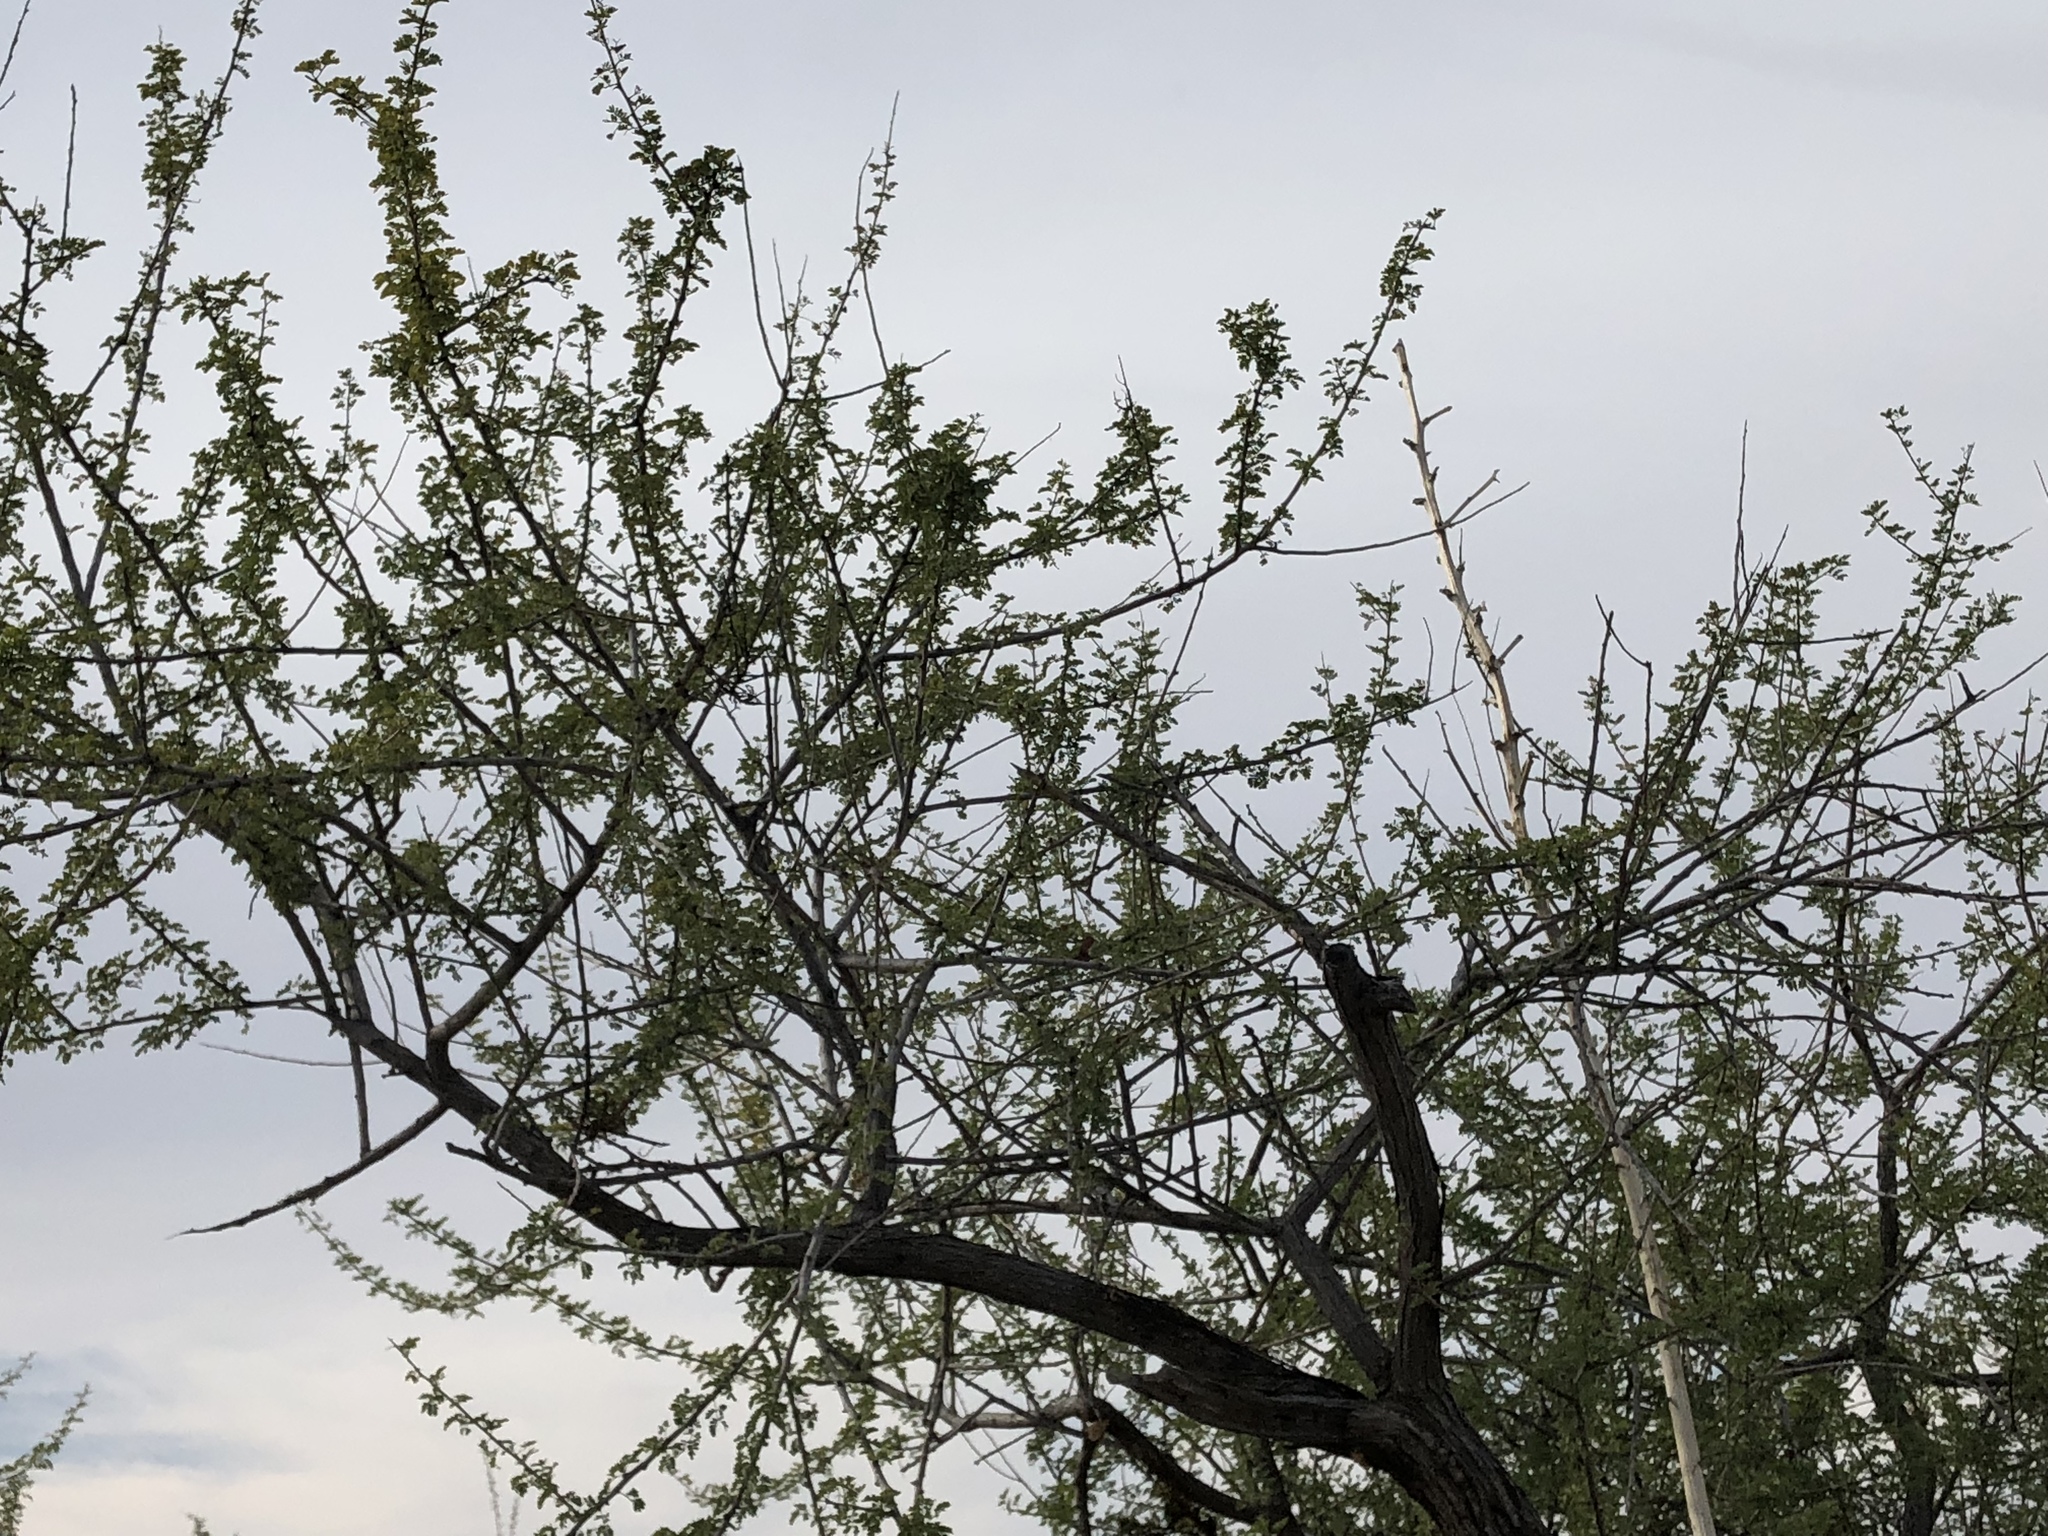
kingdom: Plantae
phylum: Tracheophyta
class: Magnoliopsida
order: Fabales
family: Fabaceae
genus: Senegalia
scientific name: Senegalia greggii
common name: Texas-mimosa
